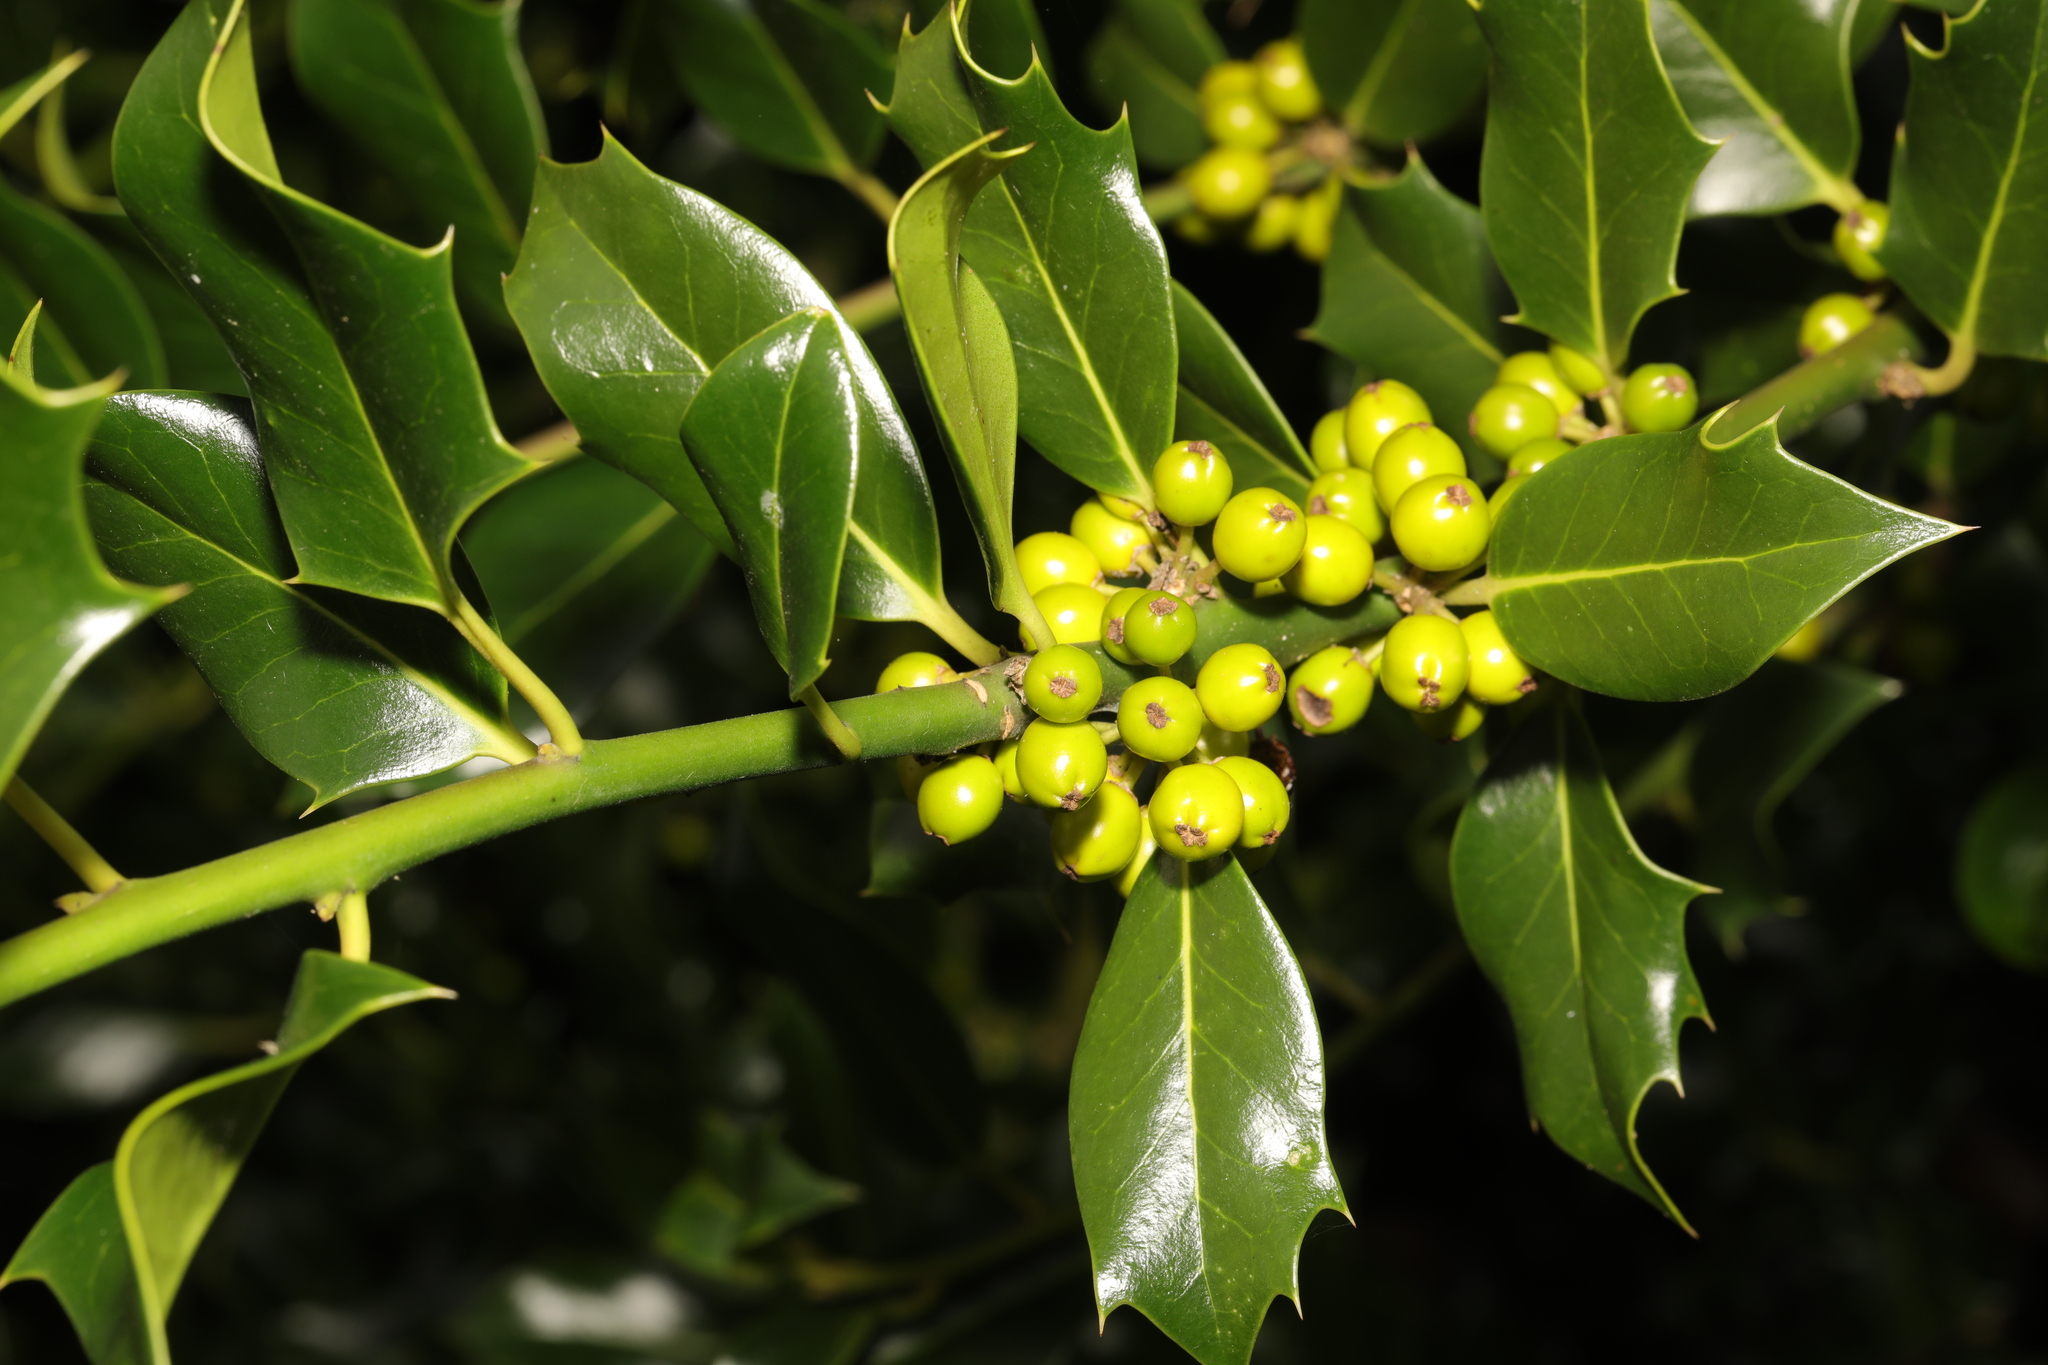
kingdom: Plantae
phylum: Tracheophyta
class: Magnoliopsida
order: Aquifoliales
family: Aquifoliaceae
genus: Ilex
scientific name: Ilex aquifolium
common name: English holly
